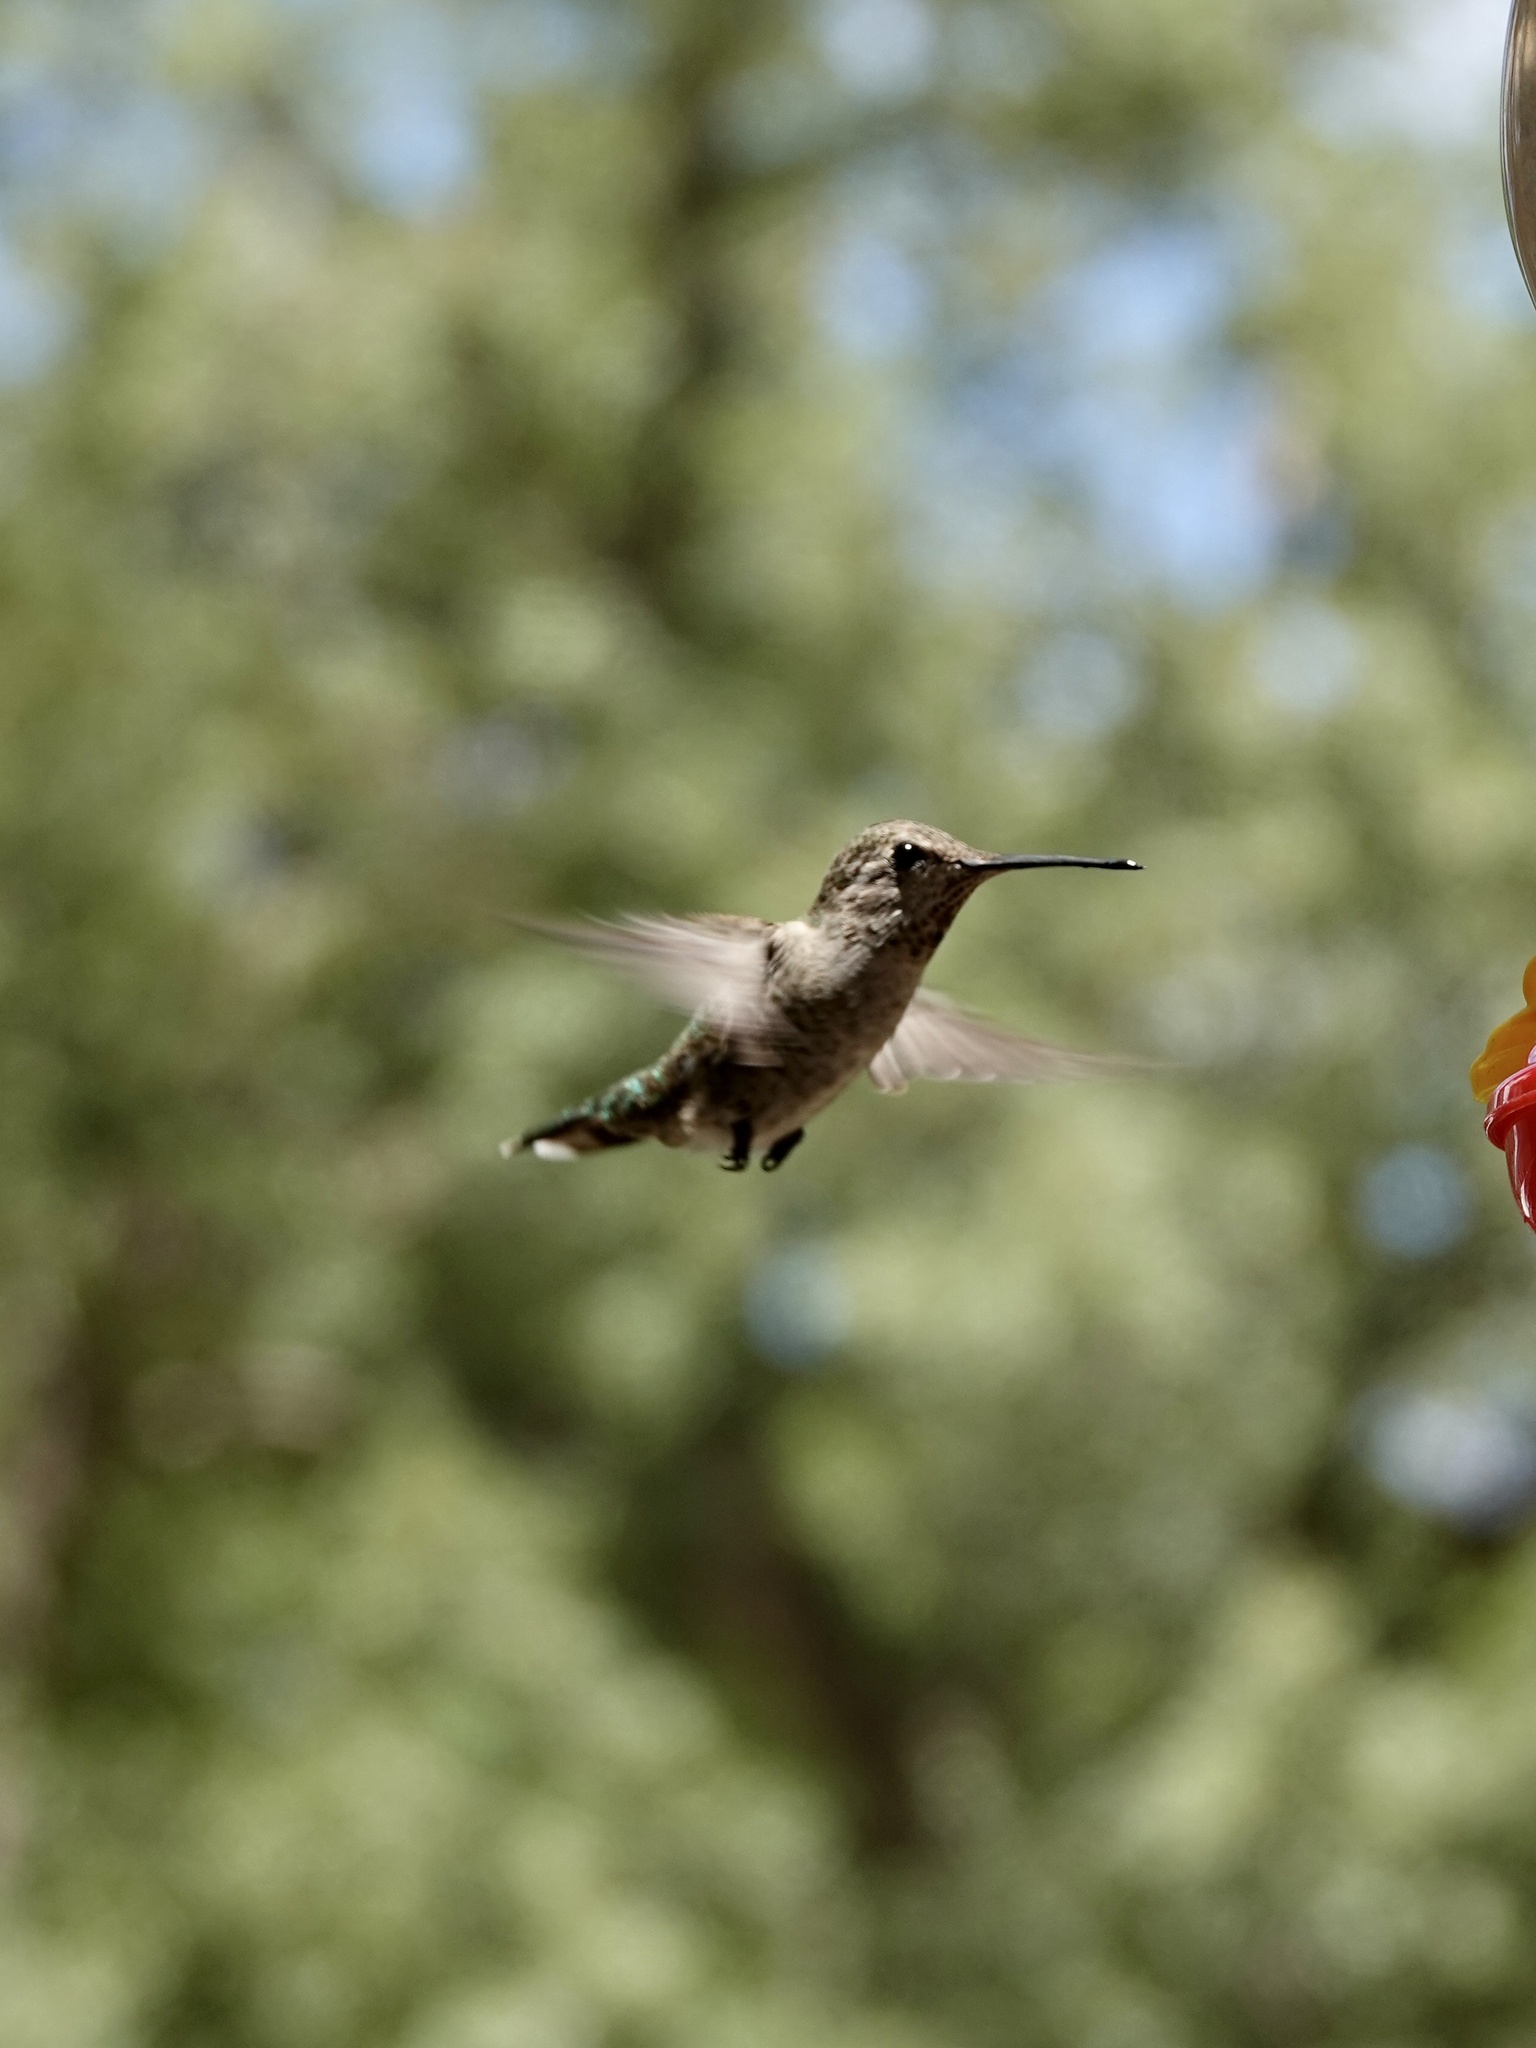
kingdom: Animalia
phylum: Chordata
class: Aves
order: Apodiformes
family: Trochilidae
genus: Calypte
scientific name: Calypte anna
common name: Anna's hummingbird
